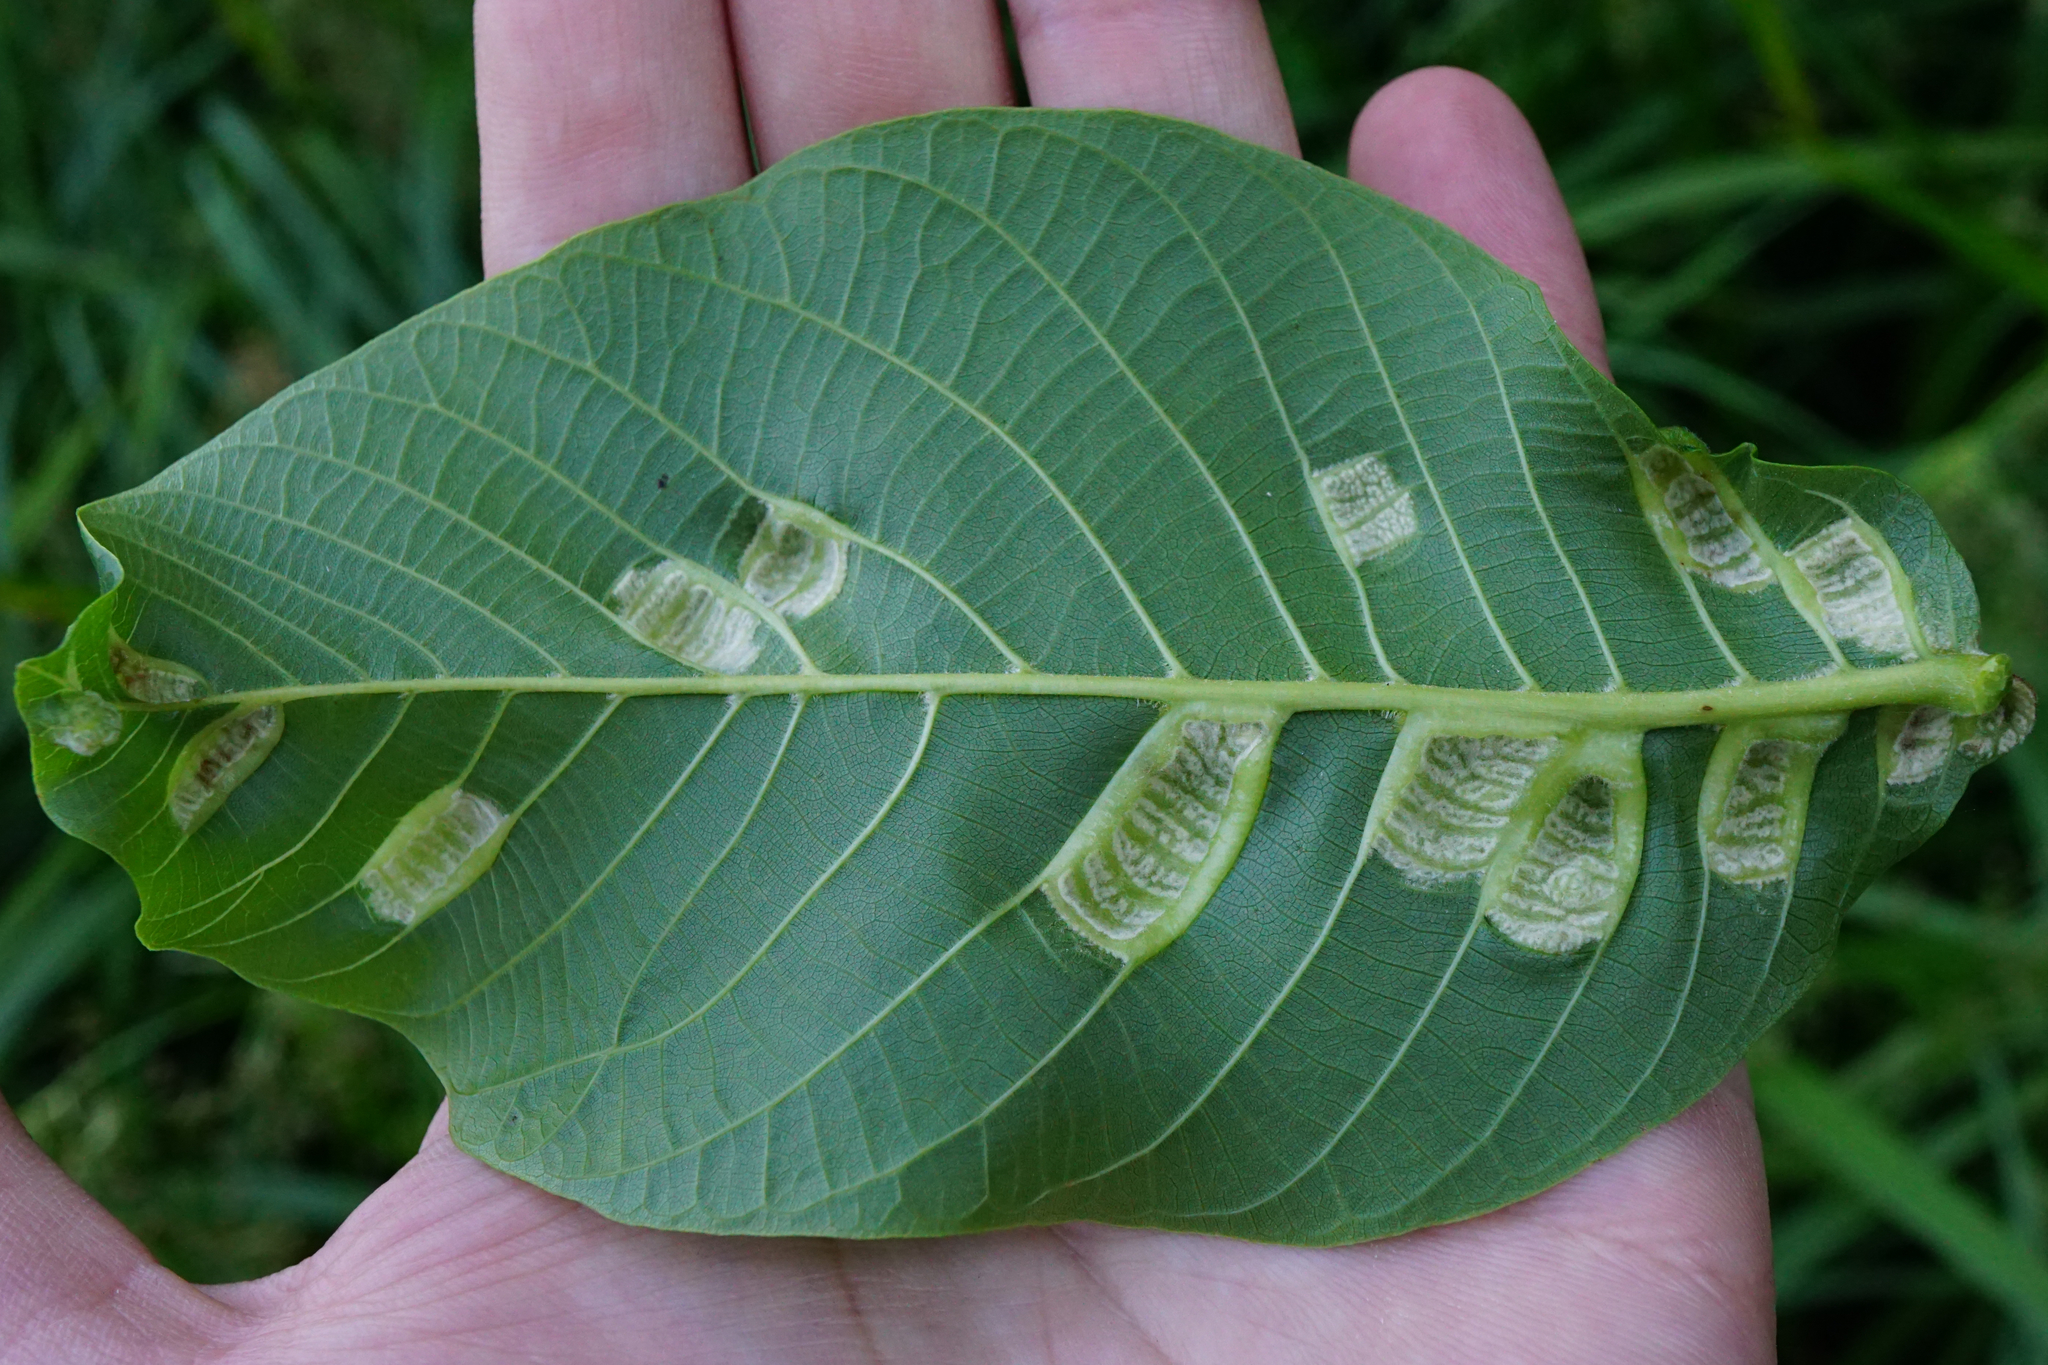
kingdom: Animalia
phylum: Arthropoda
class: Arachnida
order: Trombidiformes
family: Eriophyidae
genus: Aceria
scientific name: Aceria erinea
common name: Persian walnut erineum mite
